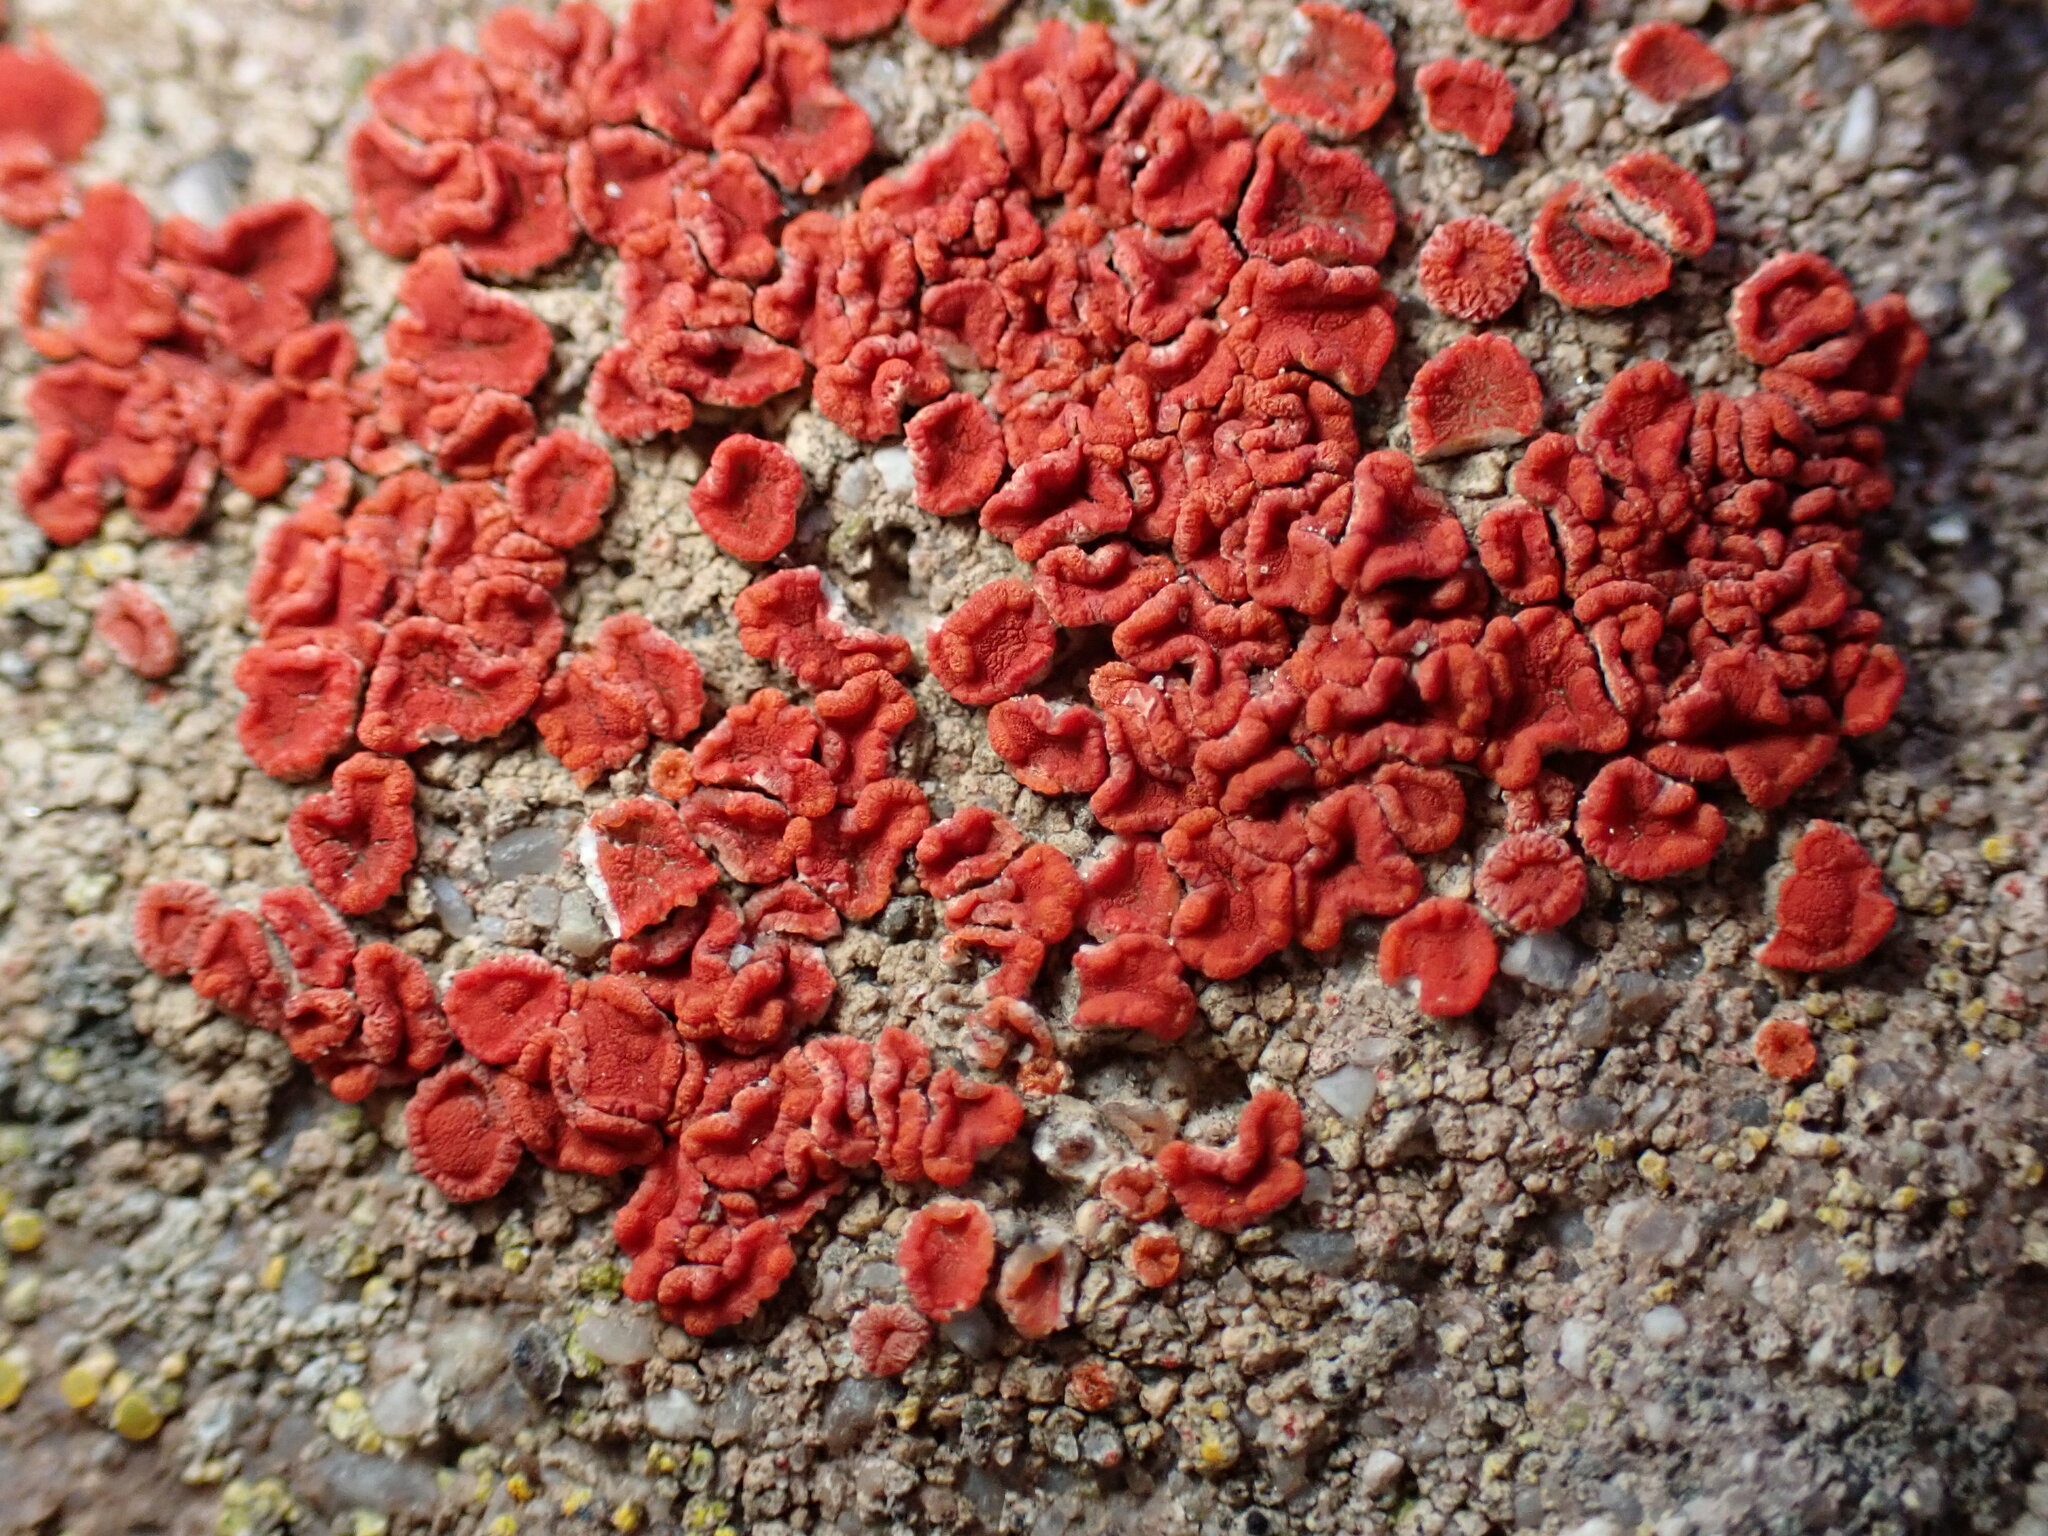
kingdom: Fungi
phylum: Ascomycota
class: Lecanoromycetes
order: Teloschistales
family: Teloschistaceae
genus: Tomnashia
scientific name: Tomnashia luteominia
